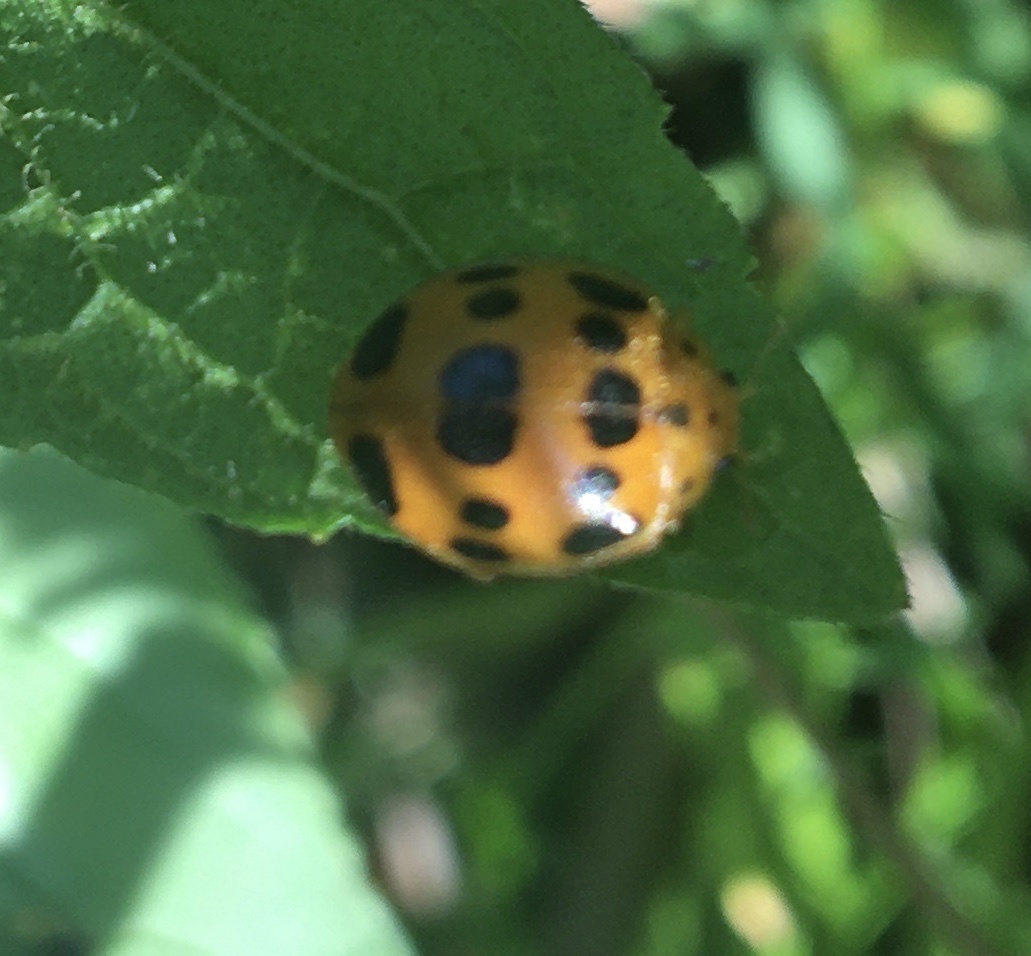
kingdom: Animalia
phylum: Arthropoda
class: Insecta
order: Coleoptera
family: Coccinellidae
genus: Epilachna
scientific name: Epilachna borealis
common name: Squash beetle
